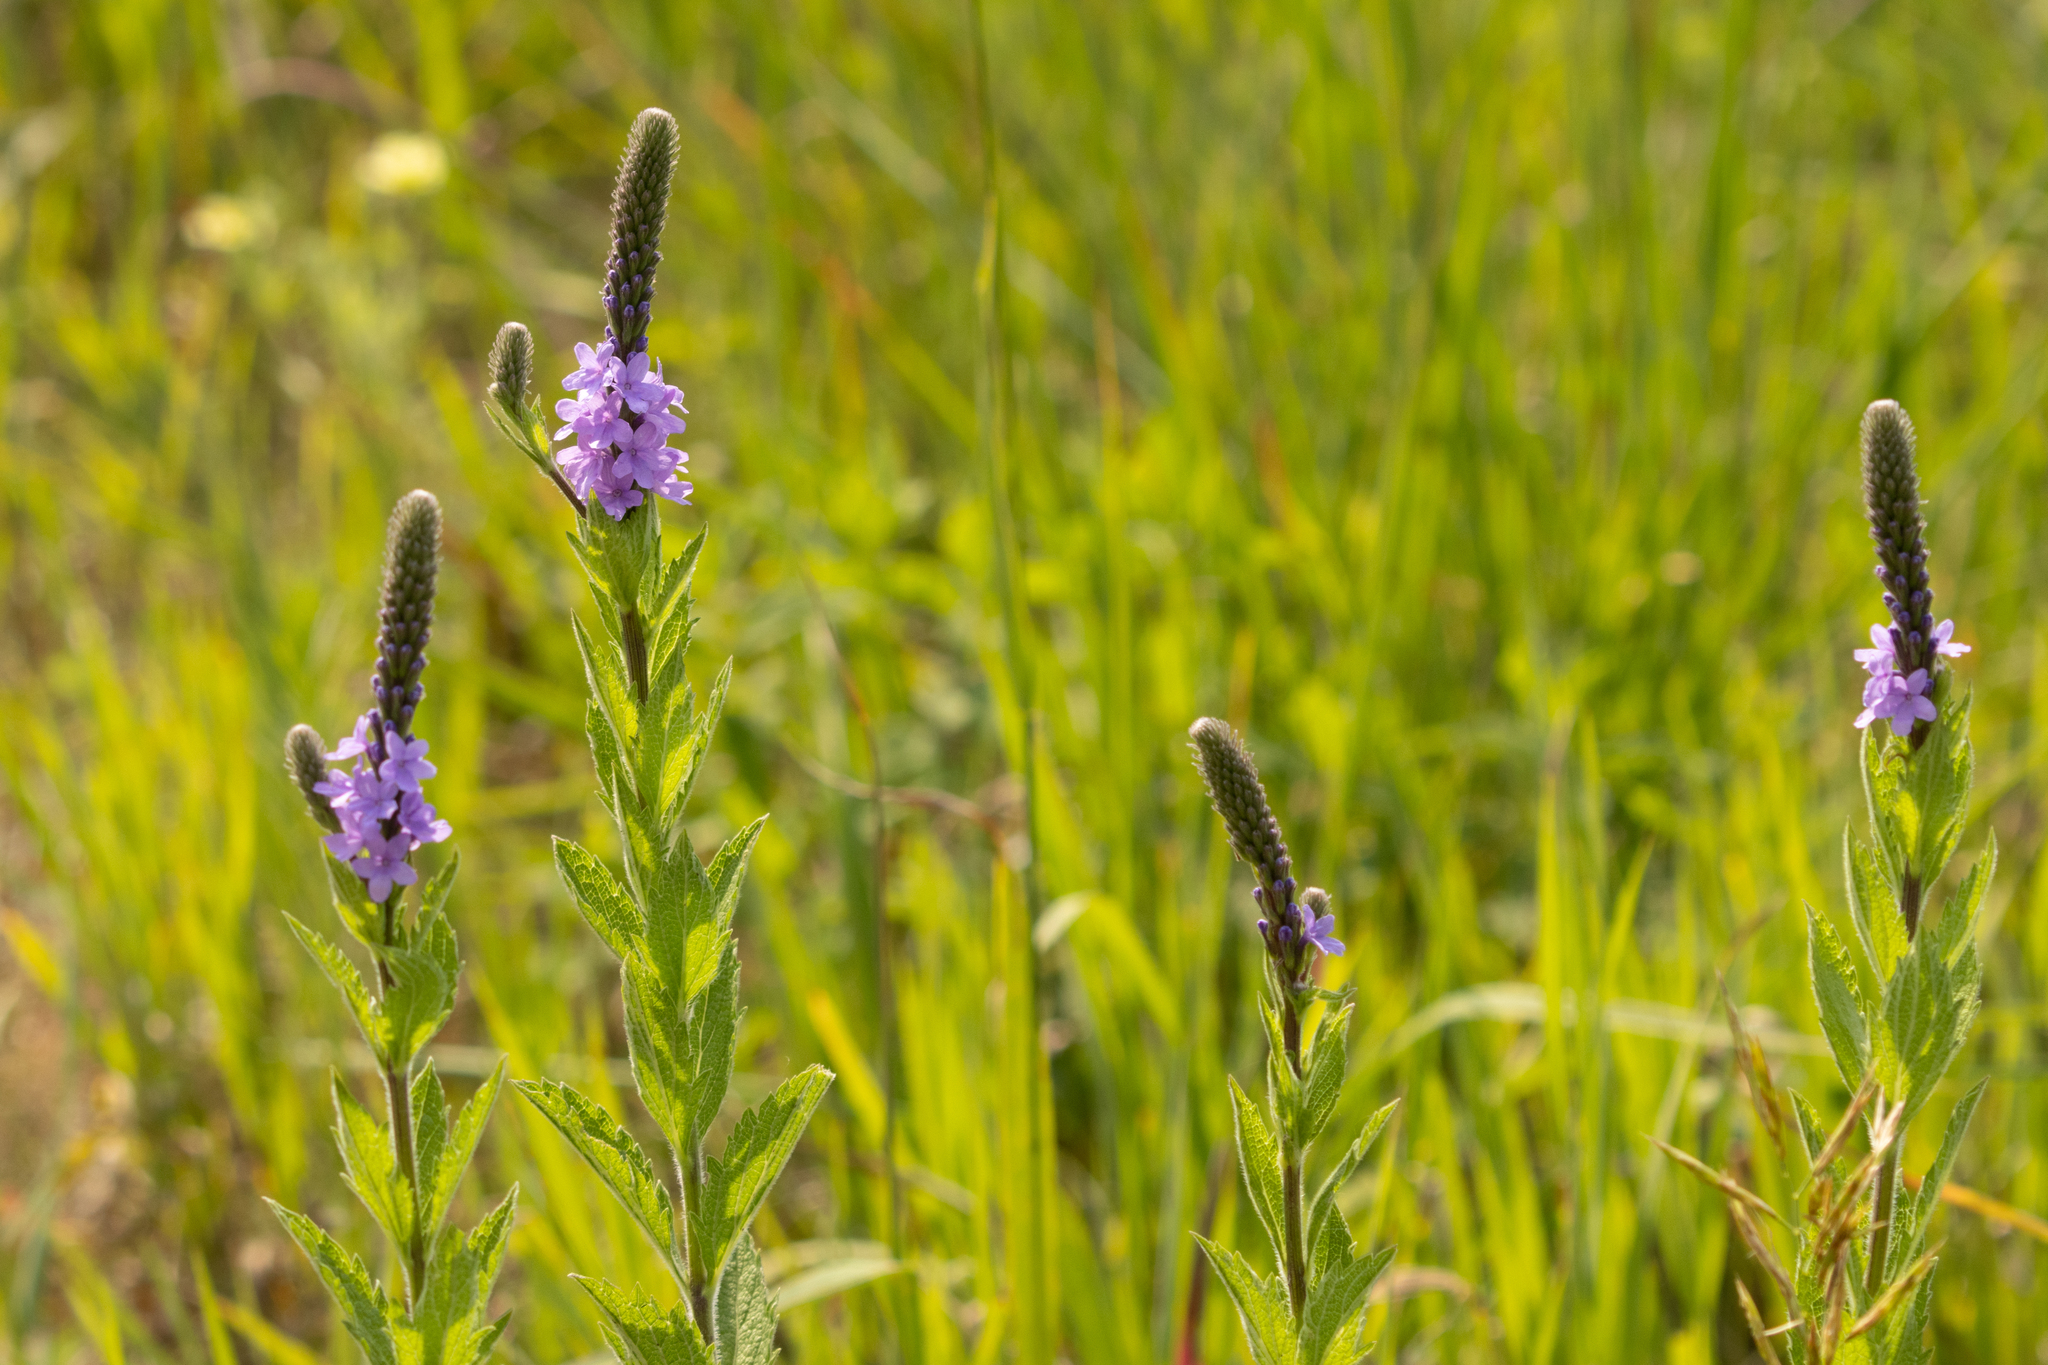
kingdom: Plantae
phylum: Tracheophyta
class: Magnoliopsida
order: Lamiales
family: Verbenaceae
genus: Verbena
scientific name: Verbena stricta
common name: Hoary vervain
